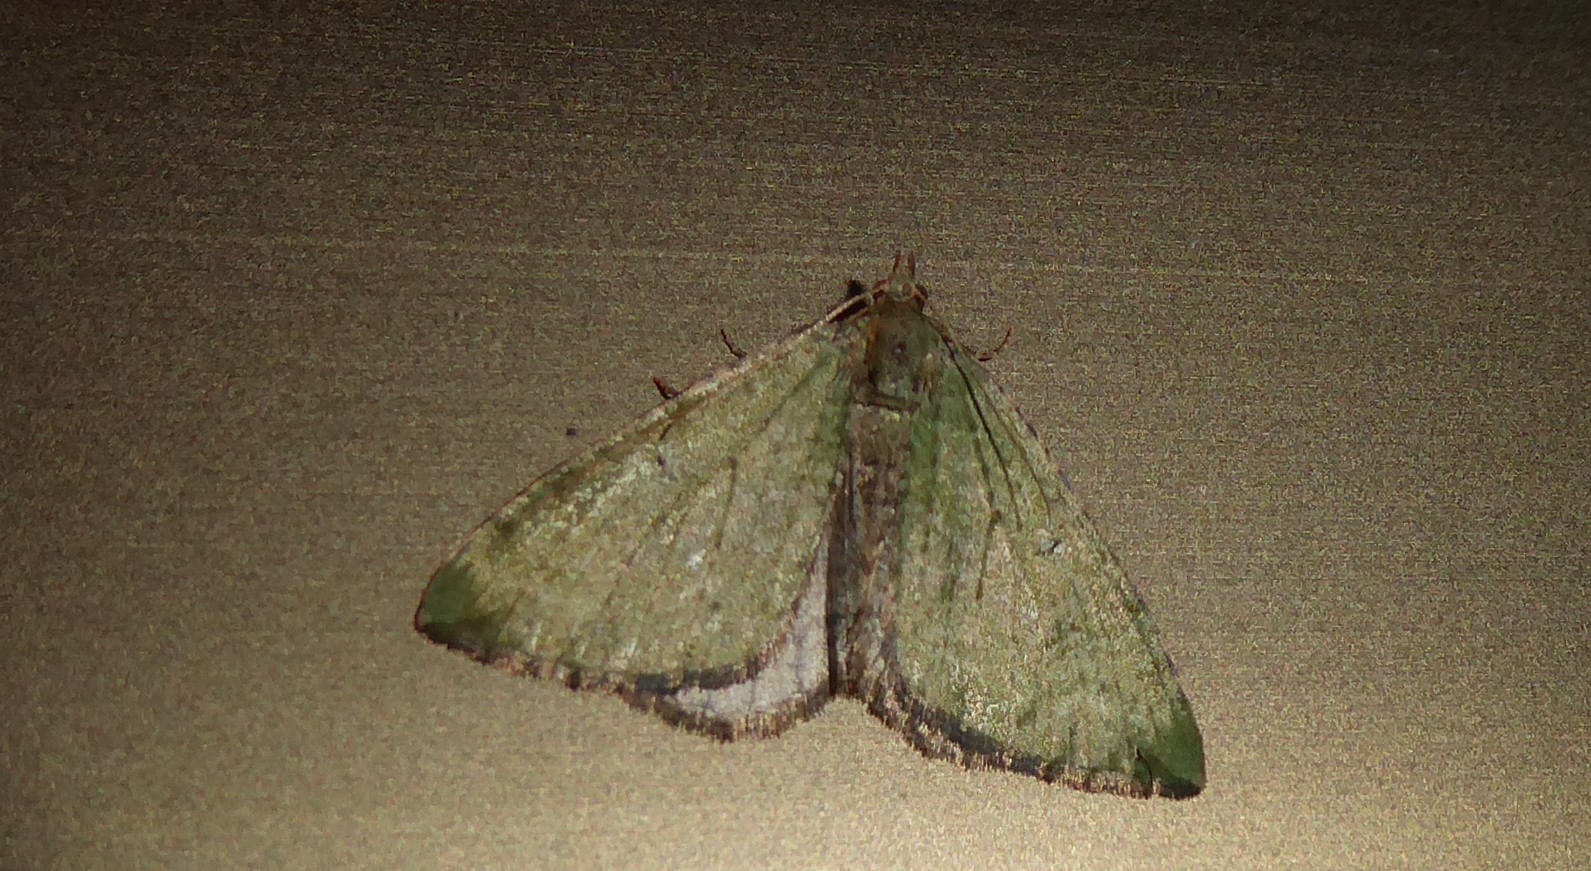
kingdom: Animalia
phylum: Arthropoda
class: Insecta
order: Lepidoptera
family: Geometridae
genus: Epyaxa
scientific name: Epyaxa rosearia
